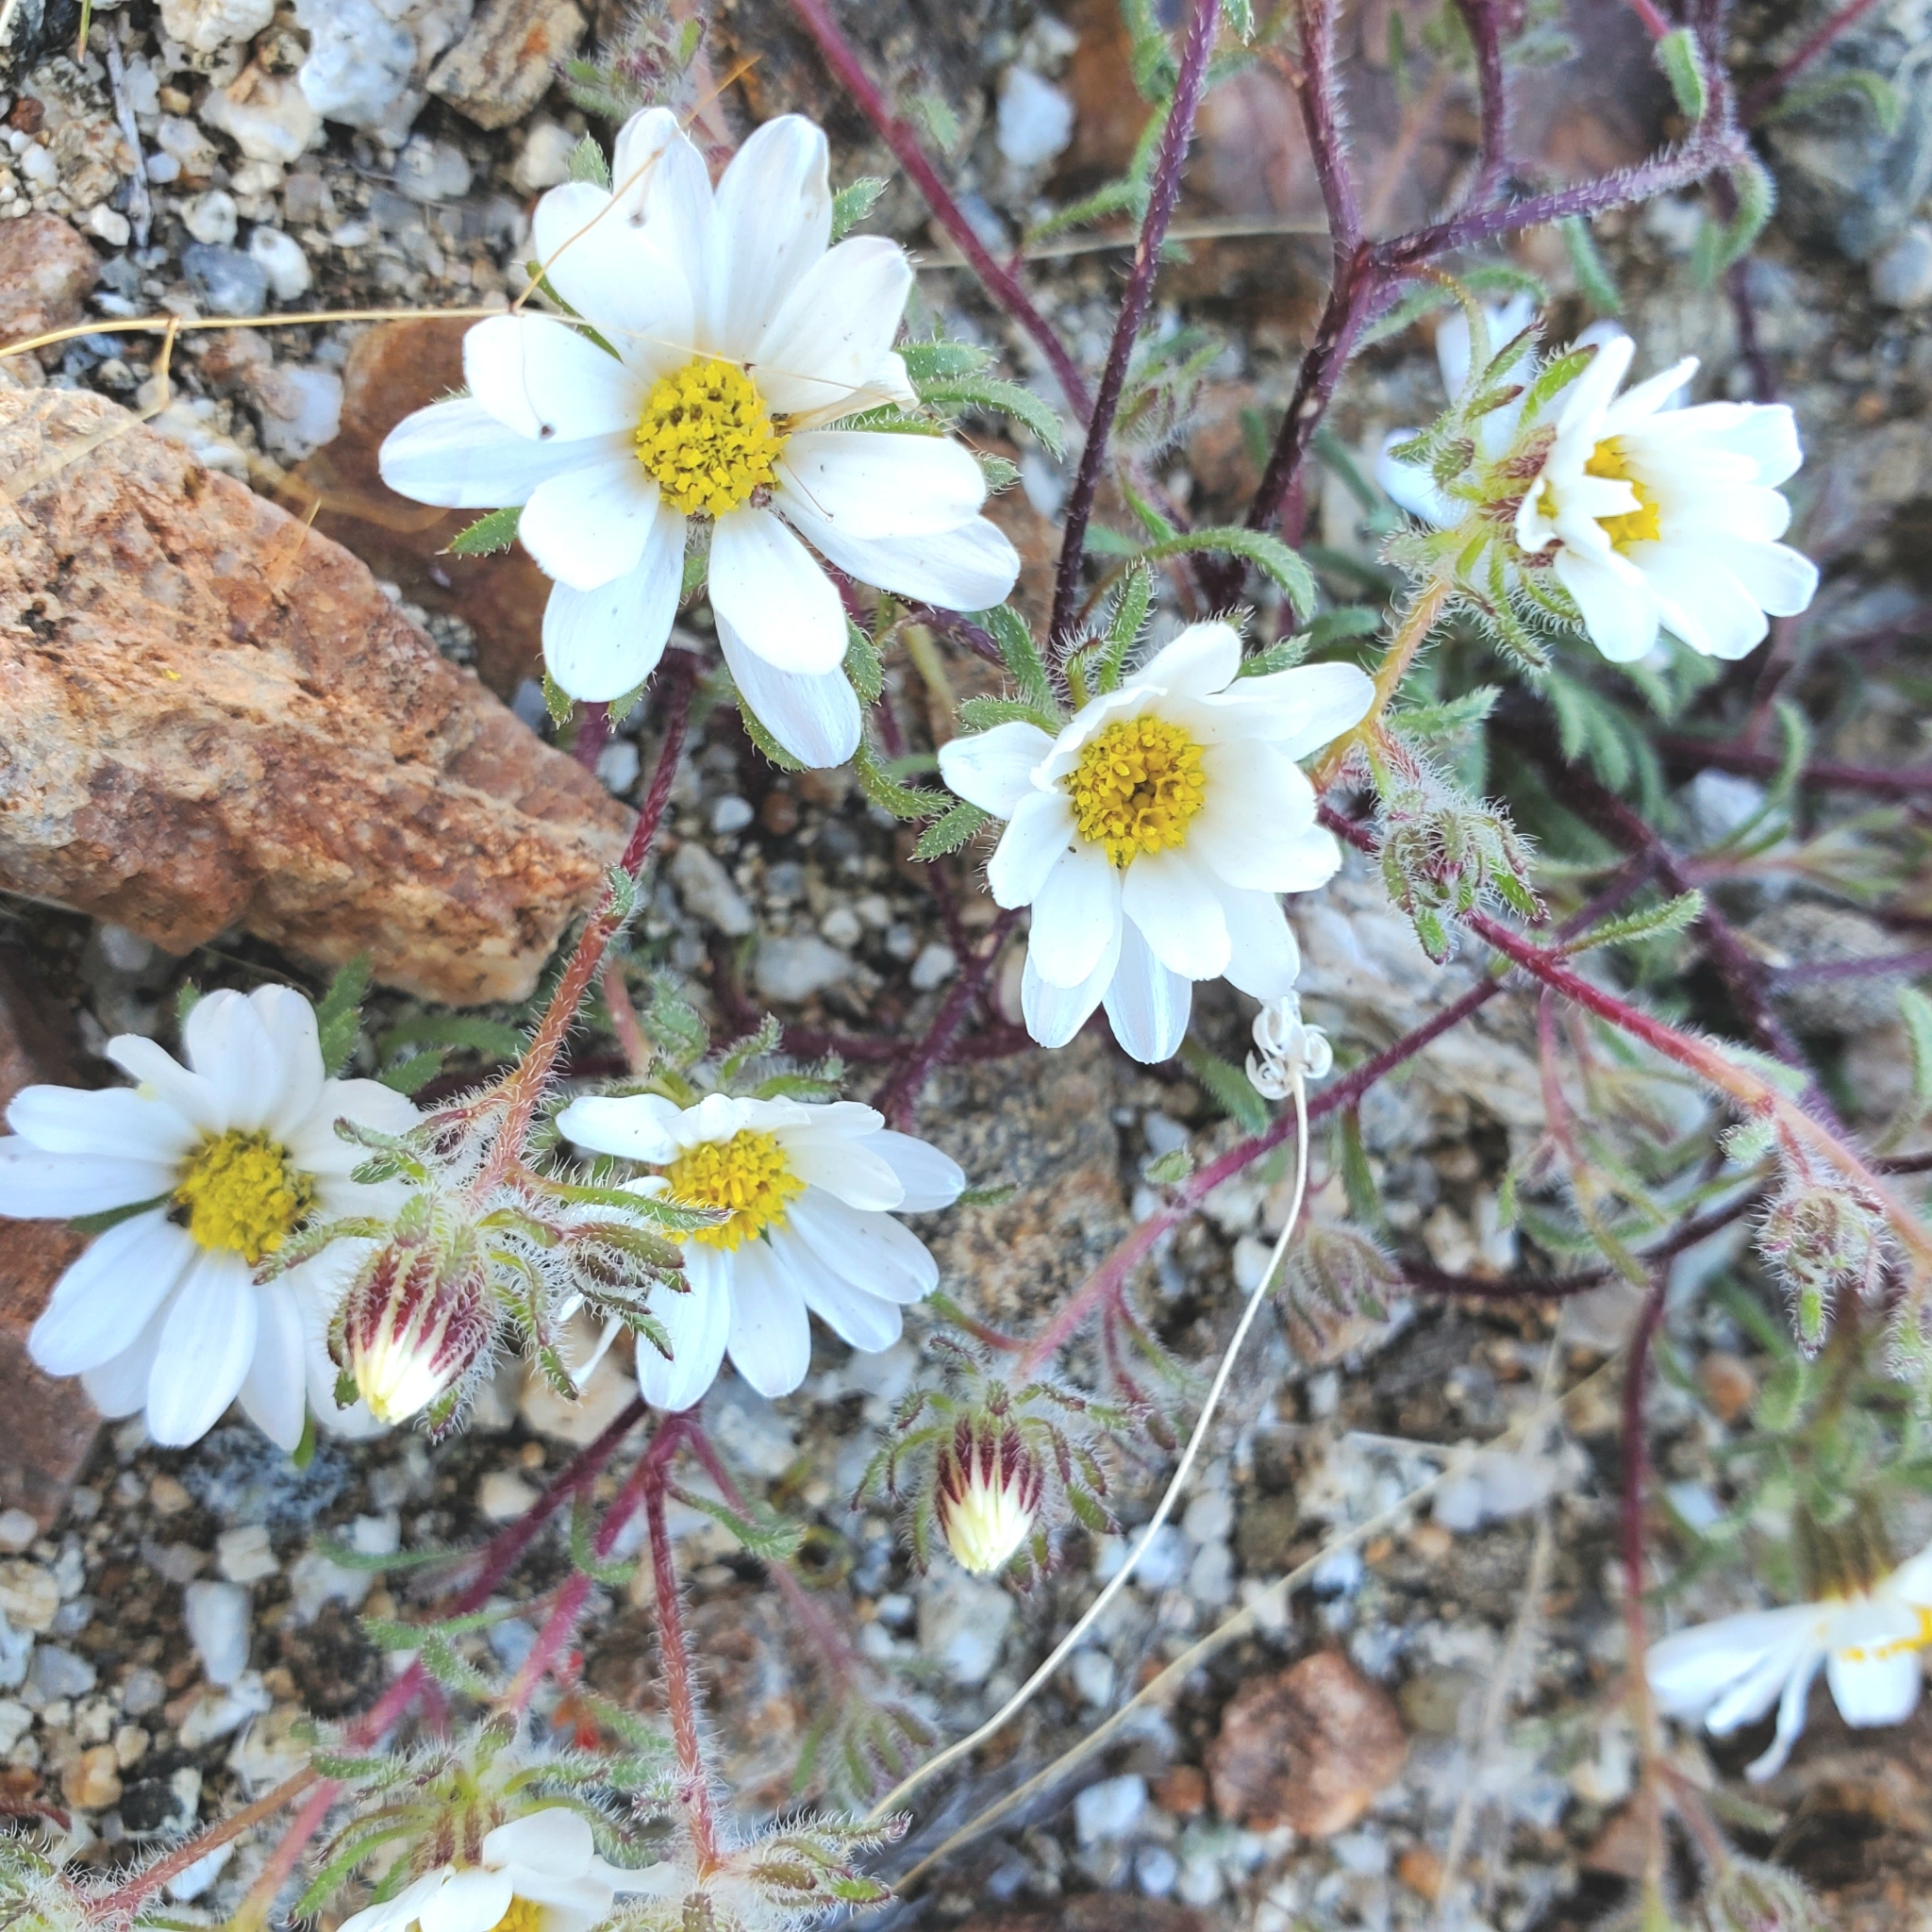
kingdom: Plantae
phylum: Tracheophyta
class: Magnoliopsida
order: Asterales
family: Asteraceae
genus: Monoptilon
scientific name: Monoptilon bellioides
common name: Bristly desertstar
